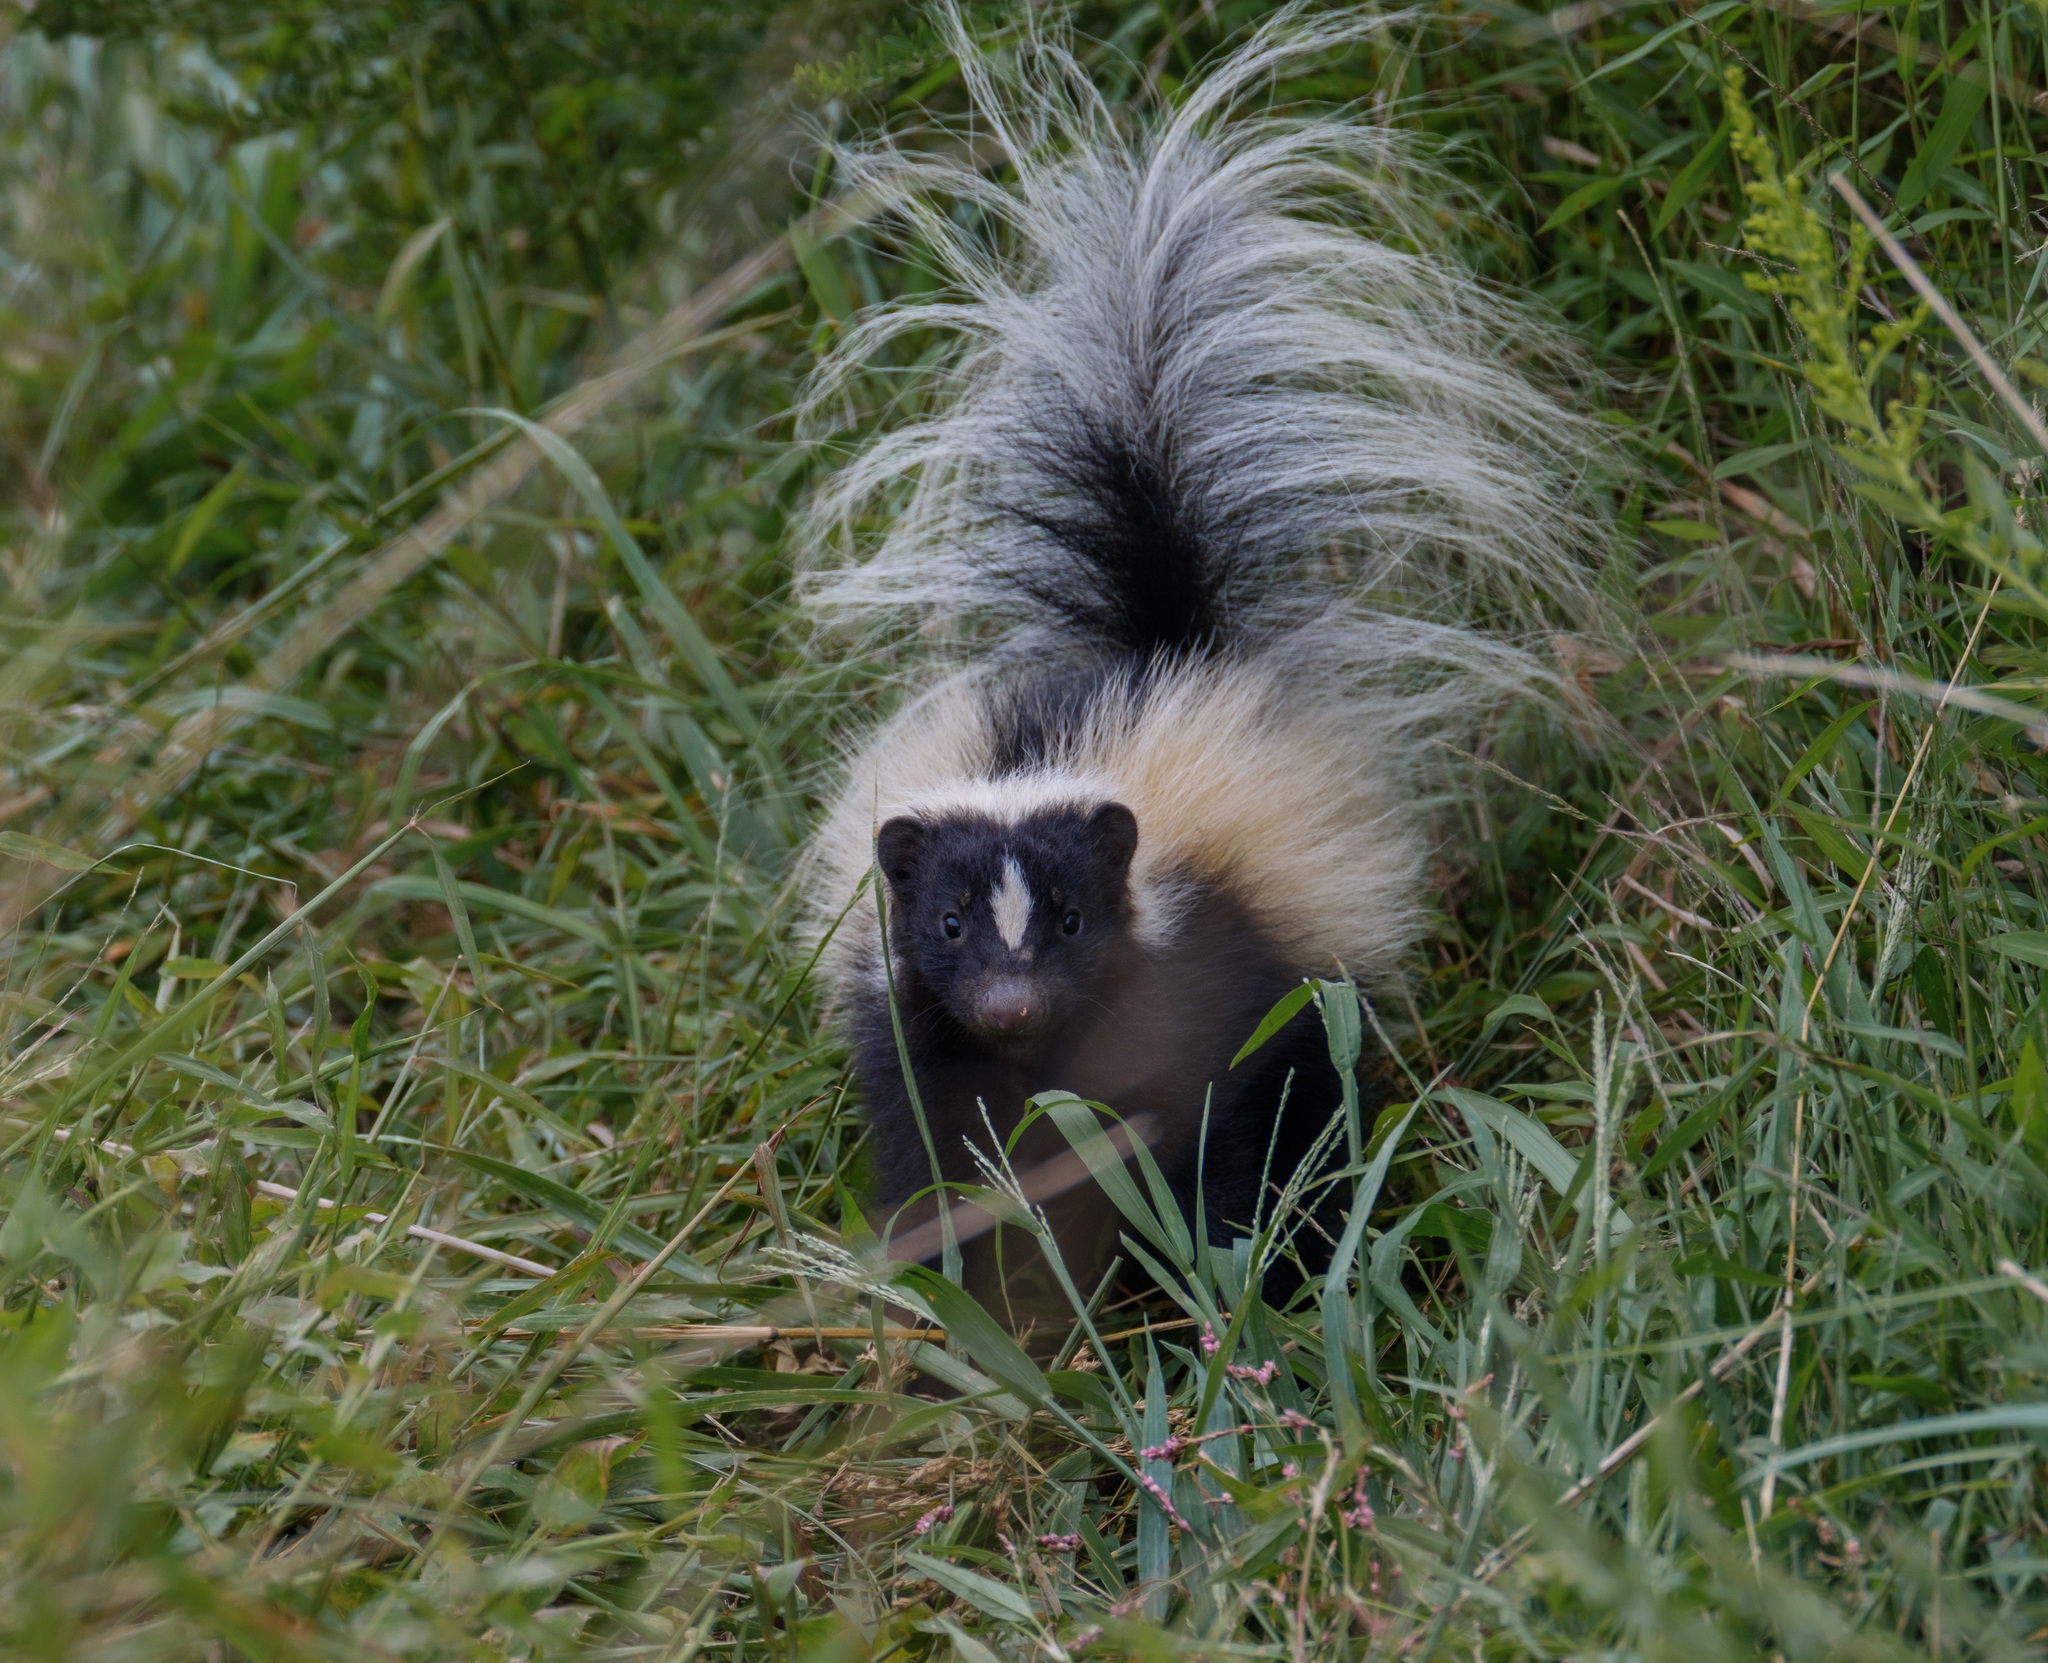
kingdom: Animalia
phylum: Chordata
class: Mammalia
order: Carnivora
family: Mephitidae
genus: Mephitis
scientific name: Mephitis mephitis
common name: Striped skunk
